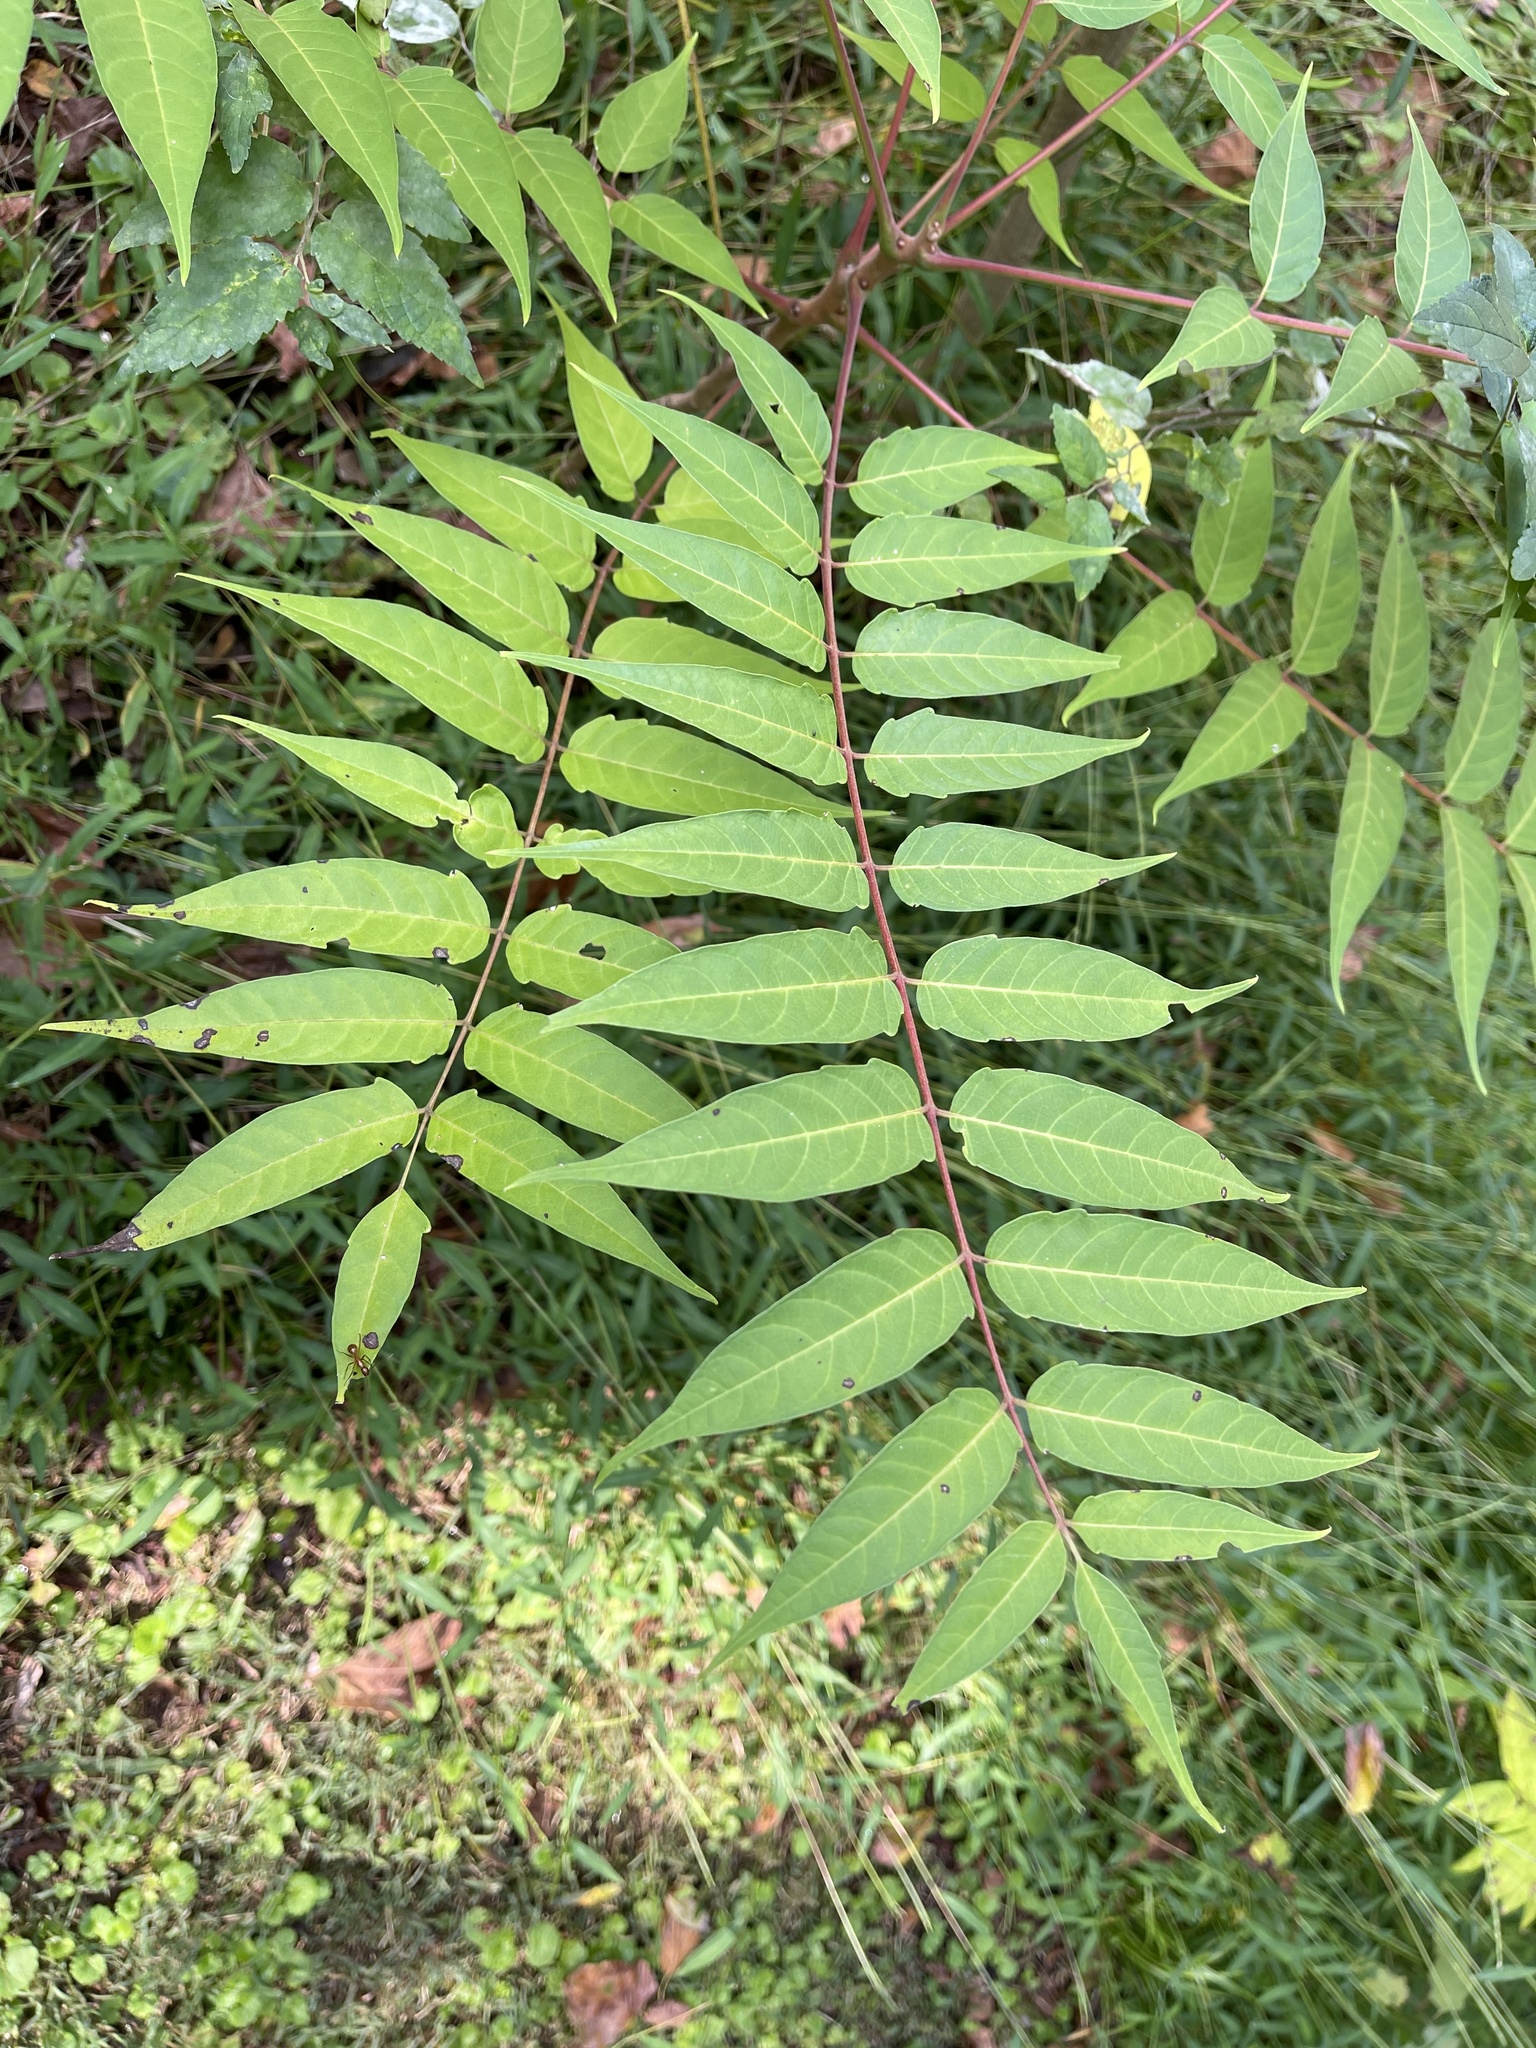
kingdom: Plantae
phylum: Tracheophyta
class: Magnoliopsida
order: Sapindales
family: Simaroubaceae
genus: Ailanthus
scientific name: Ailanthus altissima
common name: Tree-of-heaven
